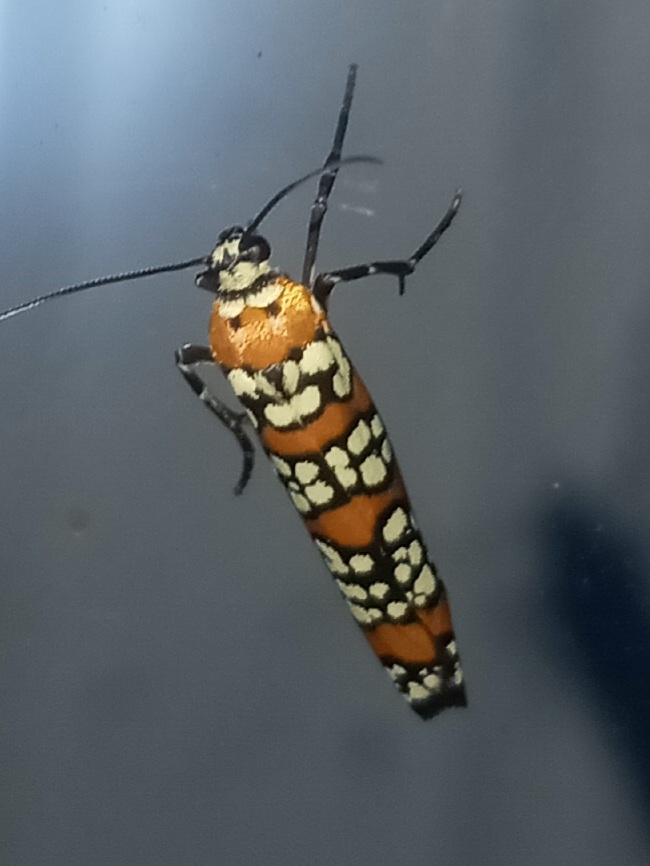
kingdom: Animalia
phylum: Arthropoda
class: Insecta
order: Lepidoptera
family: Attevidae
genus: Atteva
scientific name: Atteva punctella
